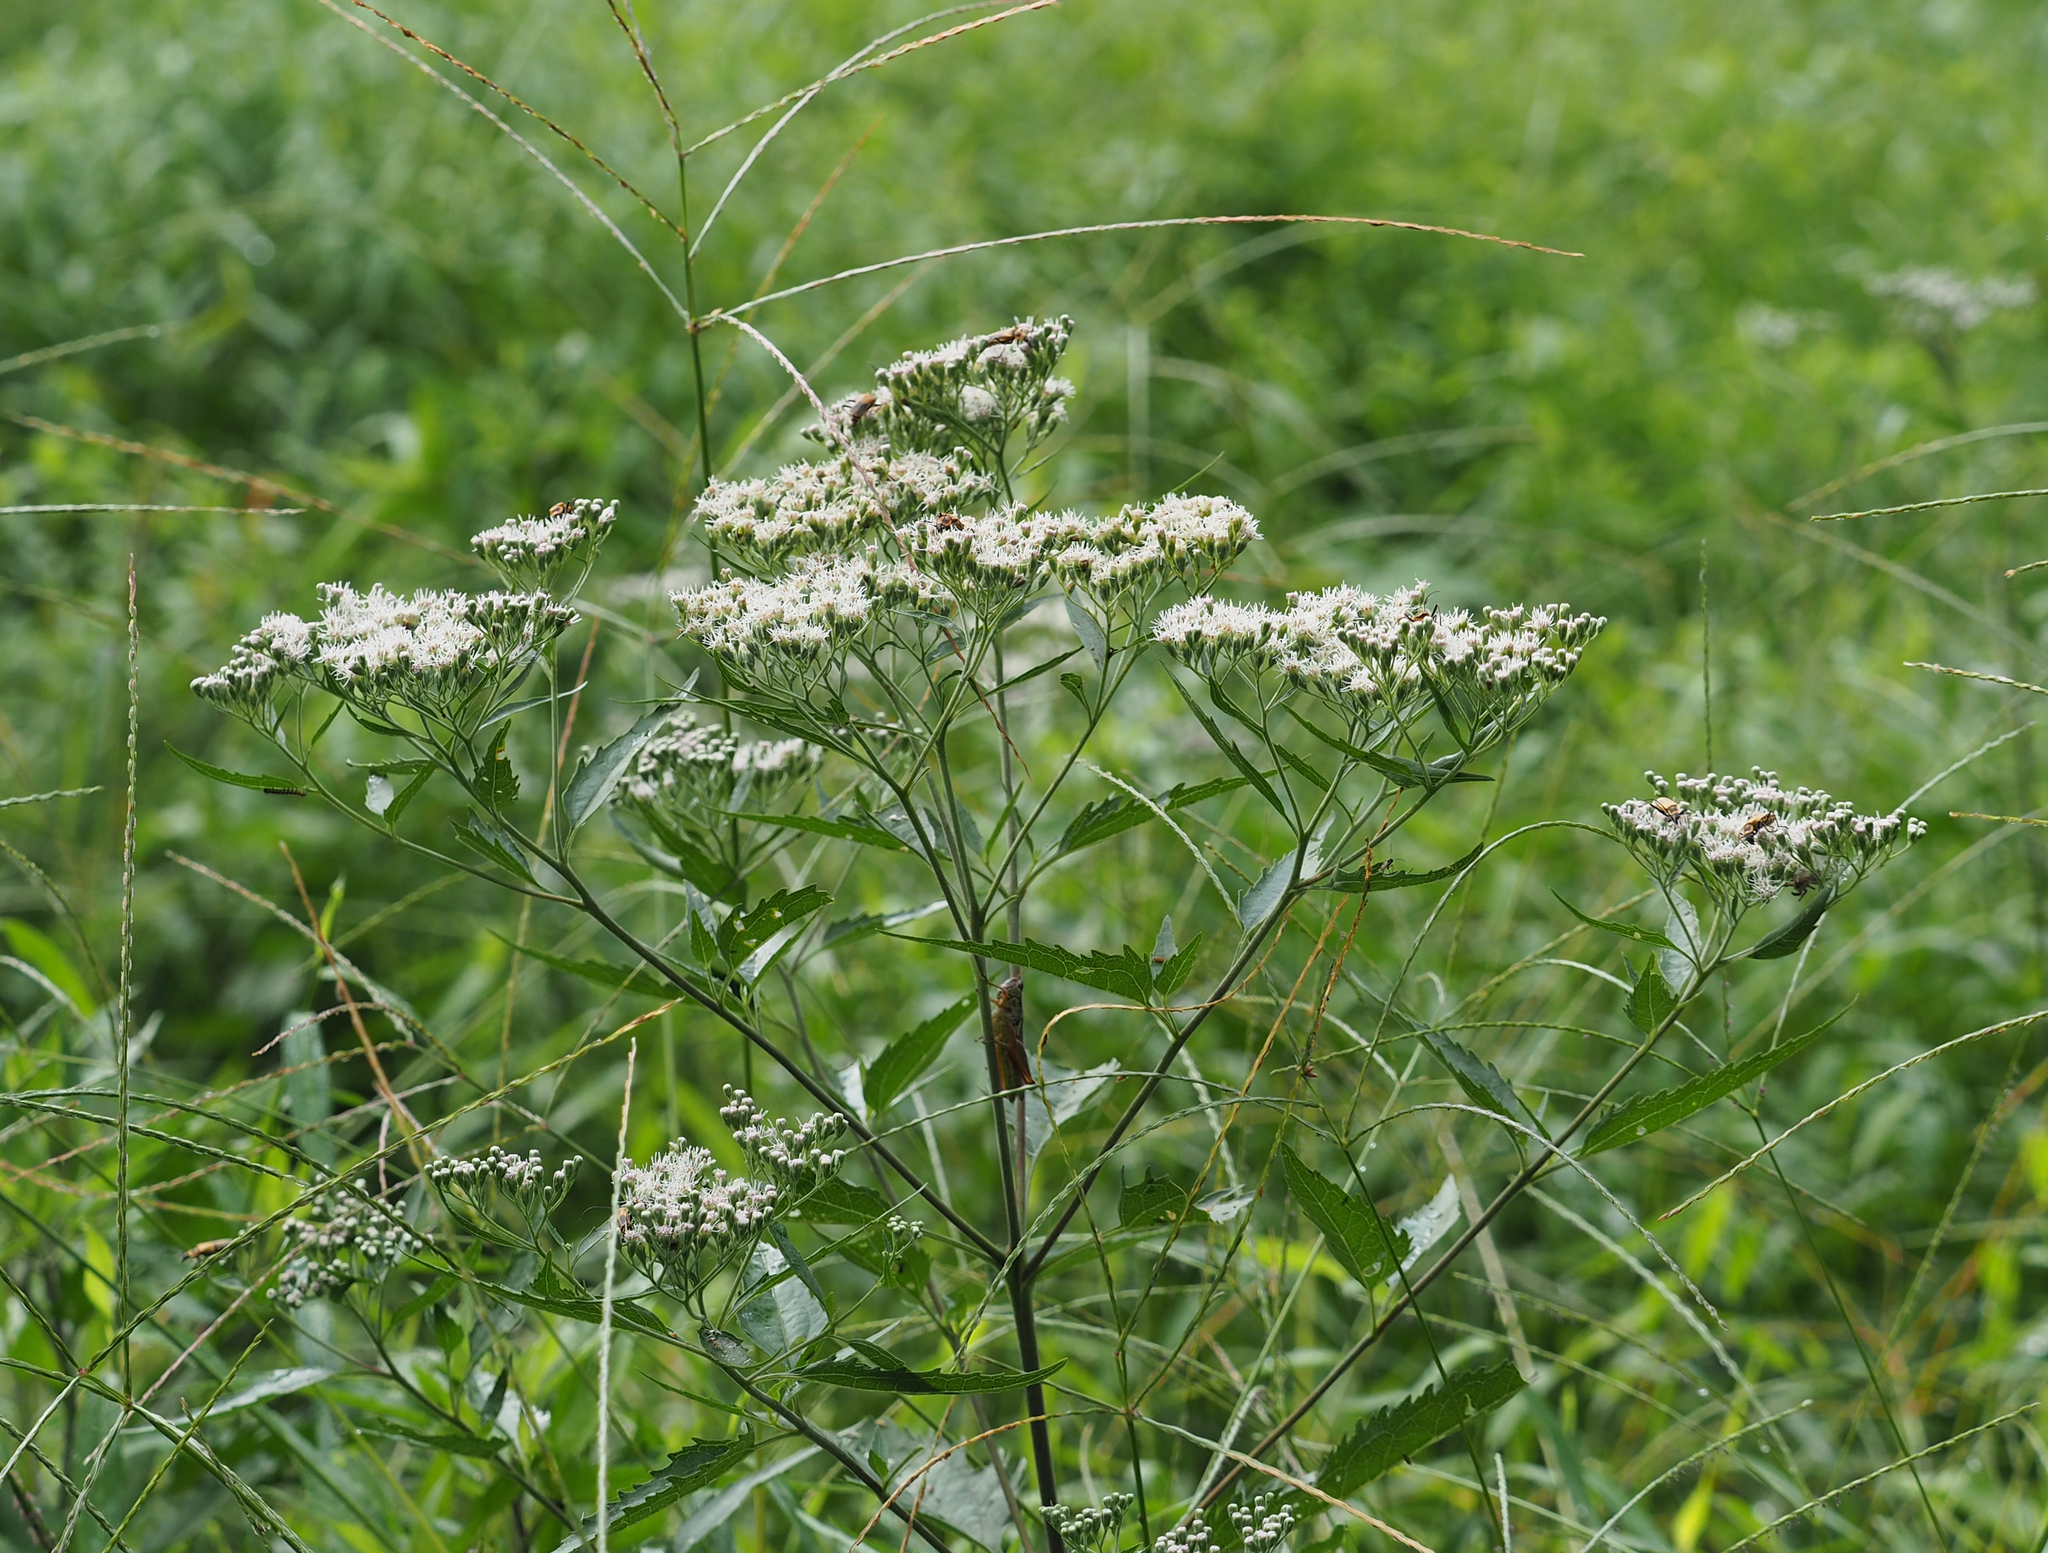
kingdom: Plantae
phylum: Tracheophyta
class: Magnoliopsida
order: Asterales
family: Asteraceae
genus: Eupatorium
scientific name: Eupatorium serotinum
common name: Late boneset
